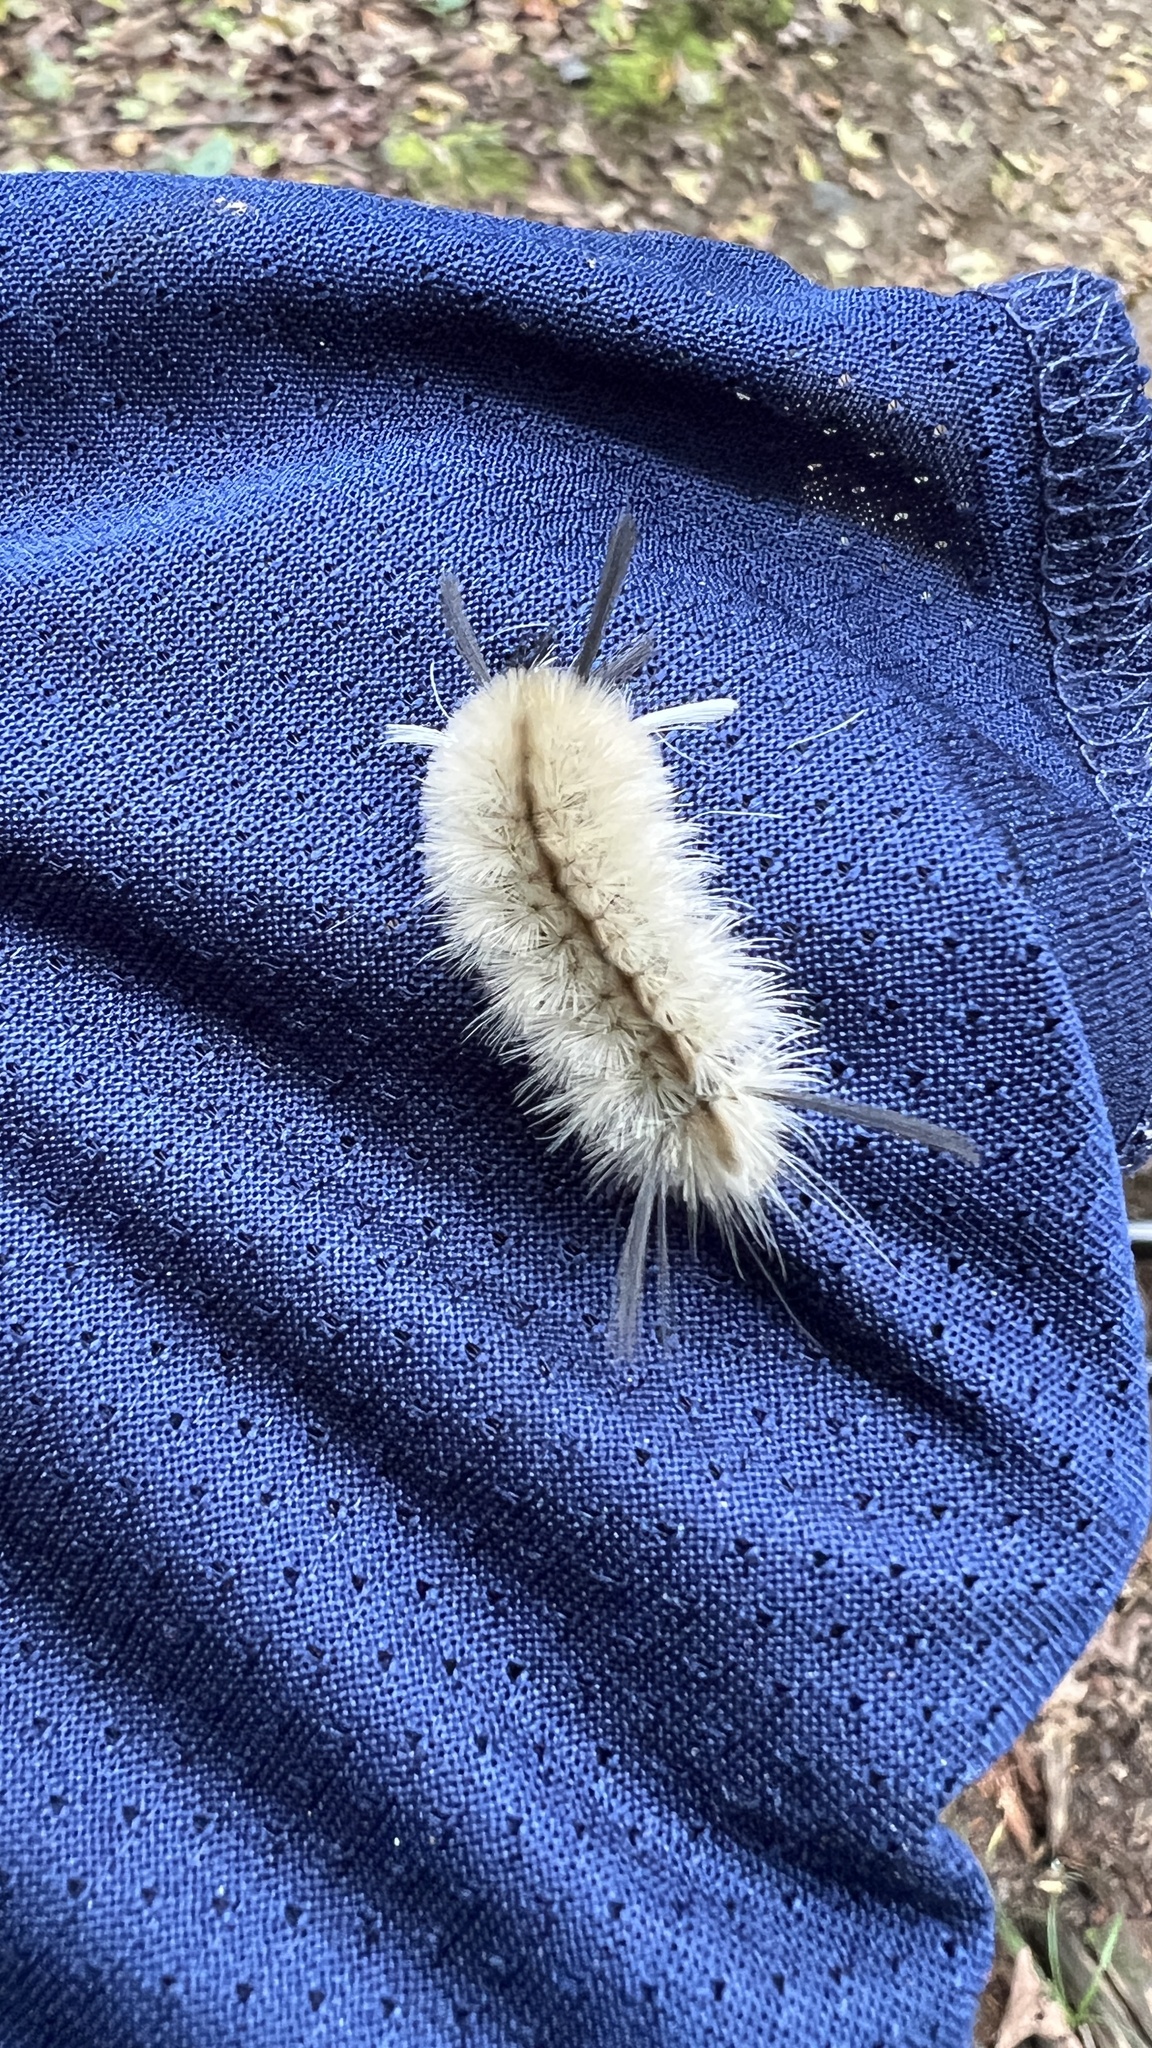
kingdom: Animalia
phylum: Arthropoda
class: Insecta
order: Lepidoptera
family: Erebidae
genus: Halysidota
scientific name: Halysidota tessellaris
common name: Banded tussock moth
